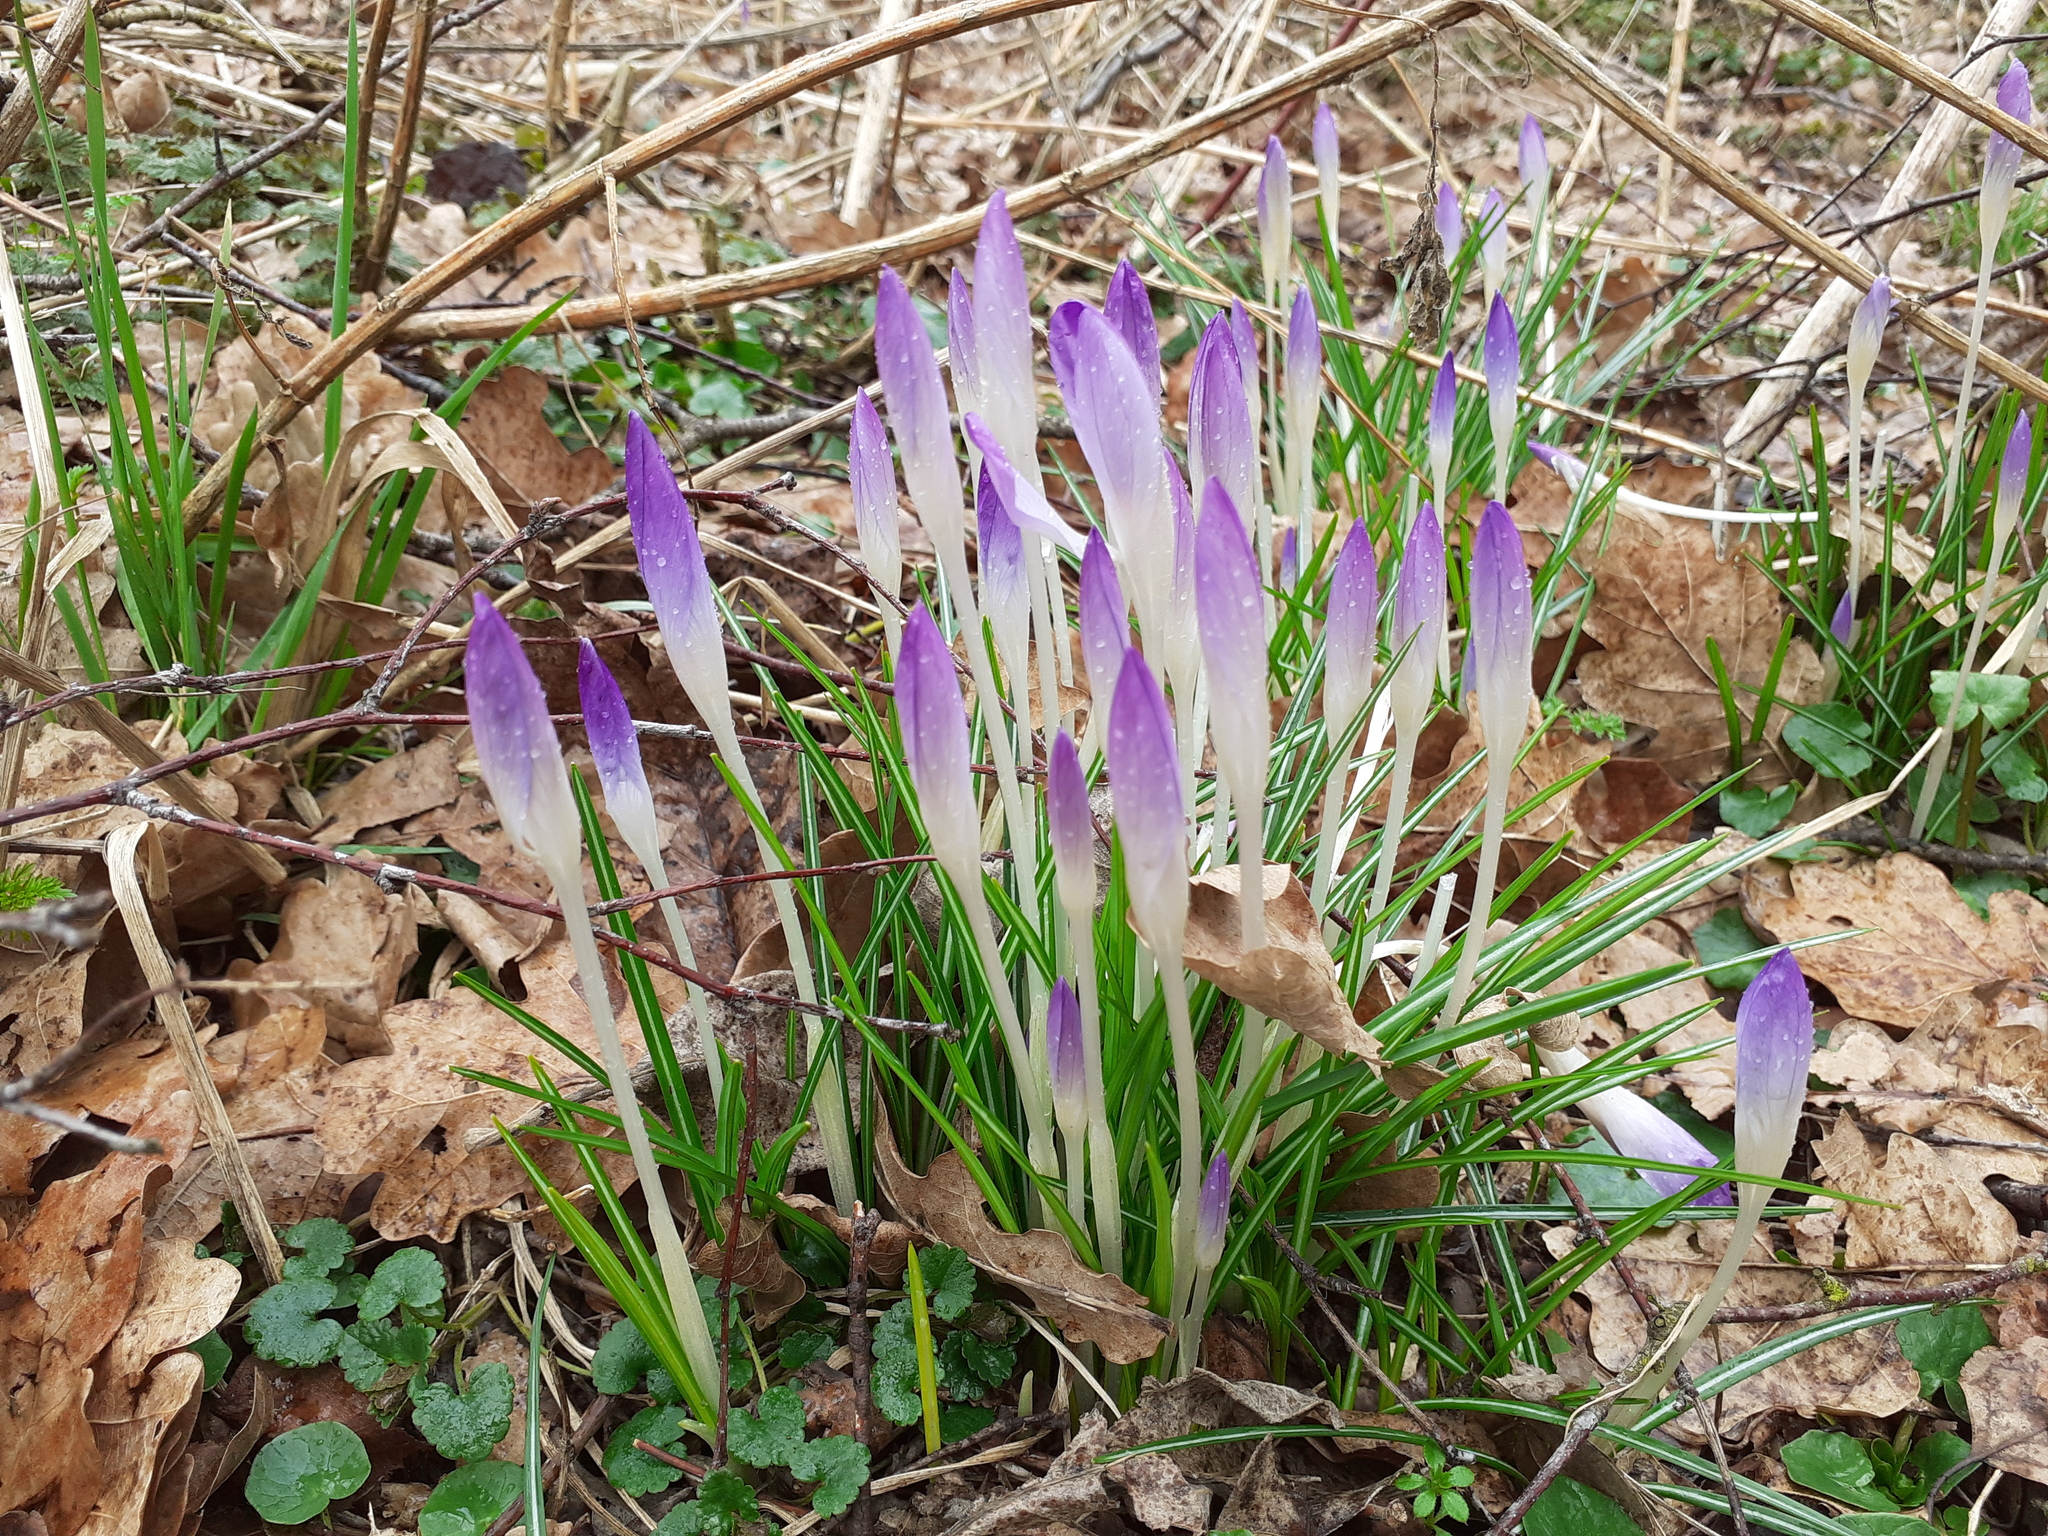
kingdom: Plantae
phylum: Tracheophyta
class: Liliopsida
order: Asparagales
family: Iridaceae
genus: Crocus
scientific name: Crocus tommasinianus
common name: Early crocus
